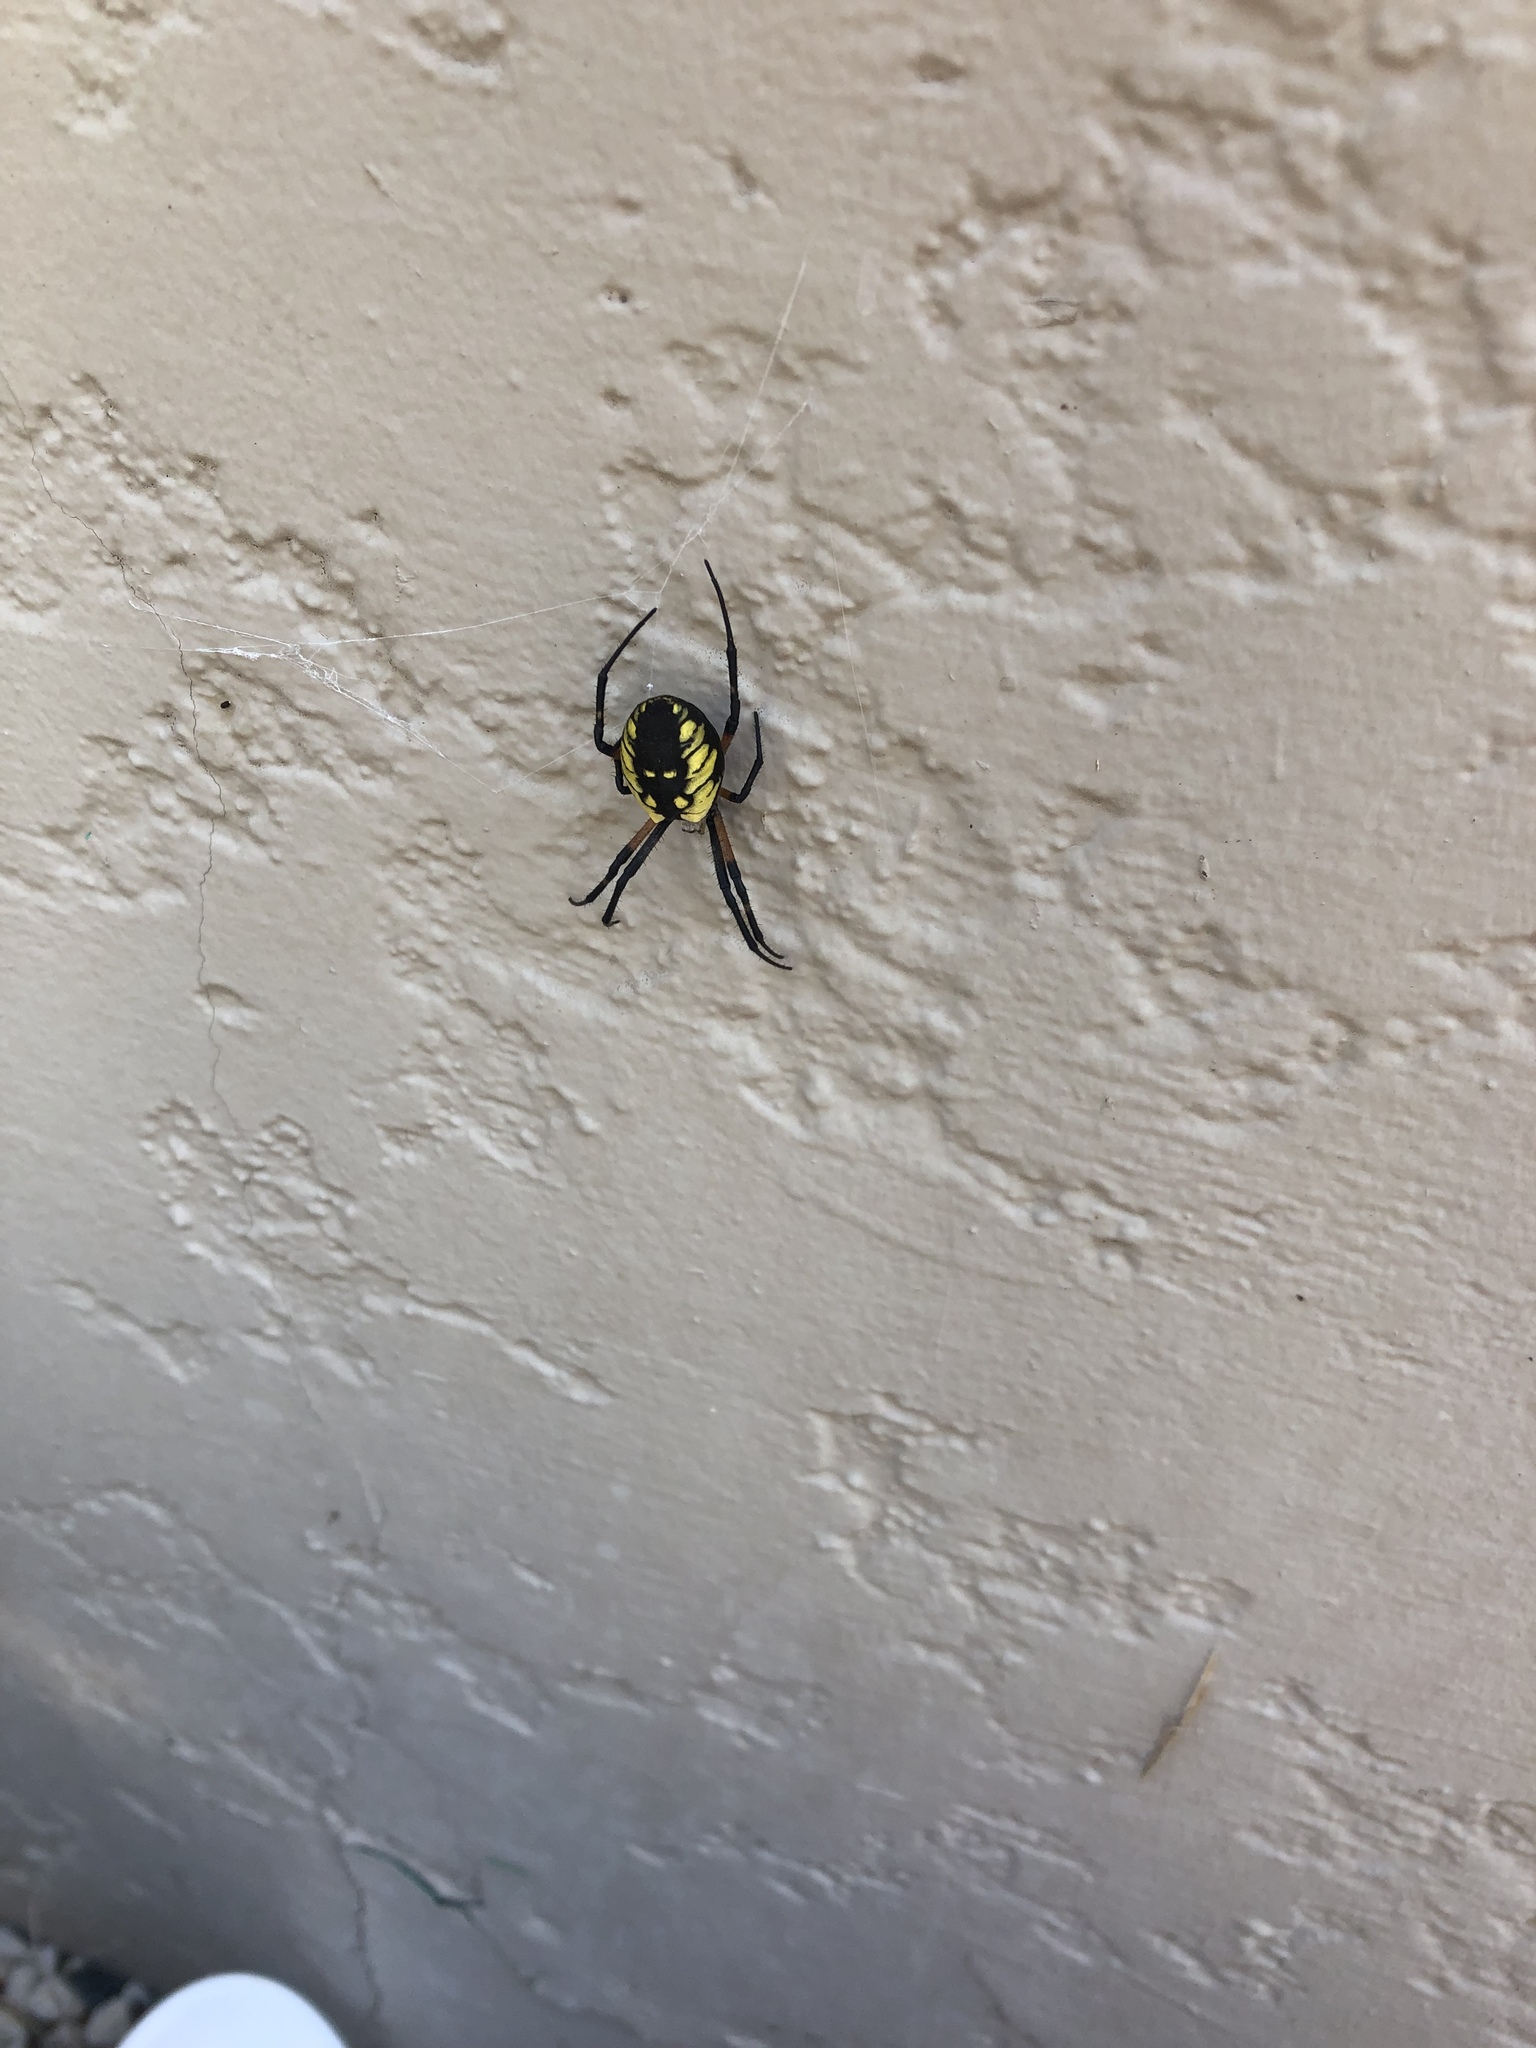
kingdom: Animalia
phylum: Arthropoda
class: Arachnida
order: Araneae
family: Araneidae
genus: Argiope
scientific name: Argiope aurantia
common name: Orb weavers
